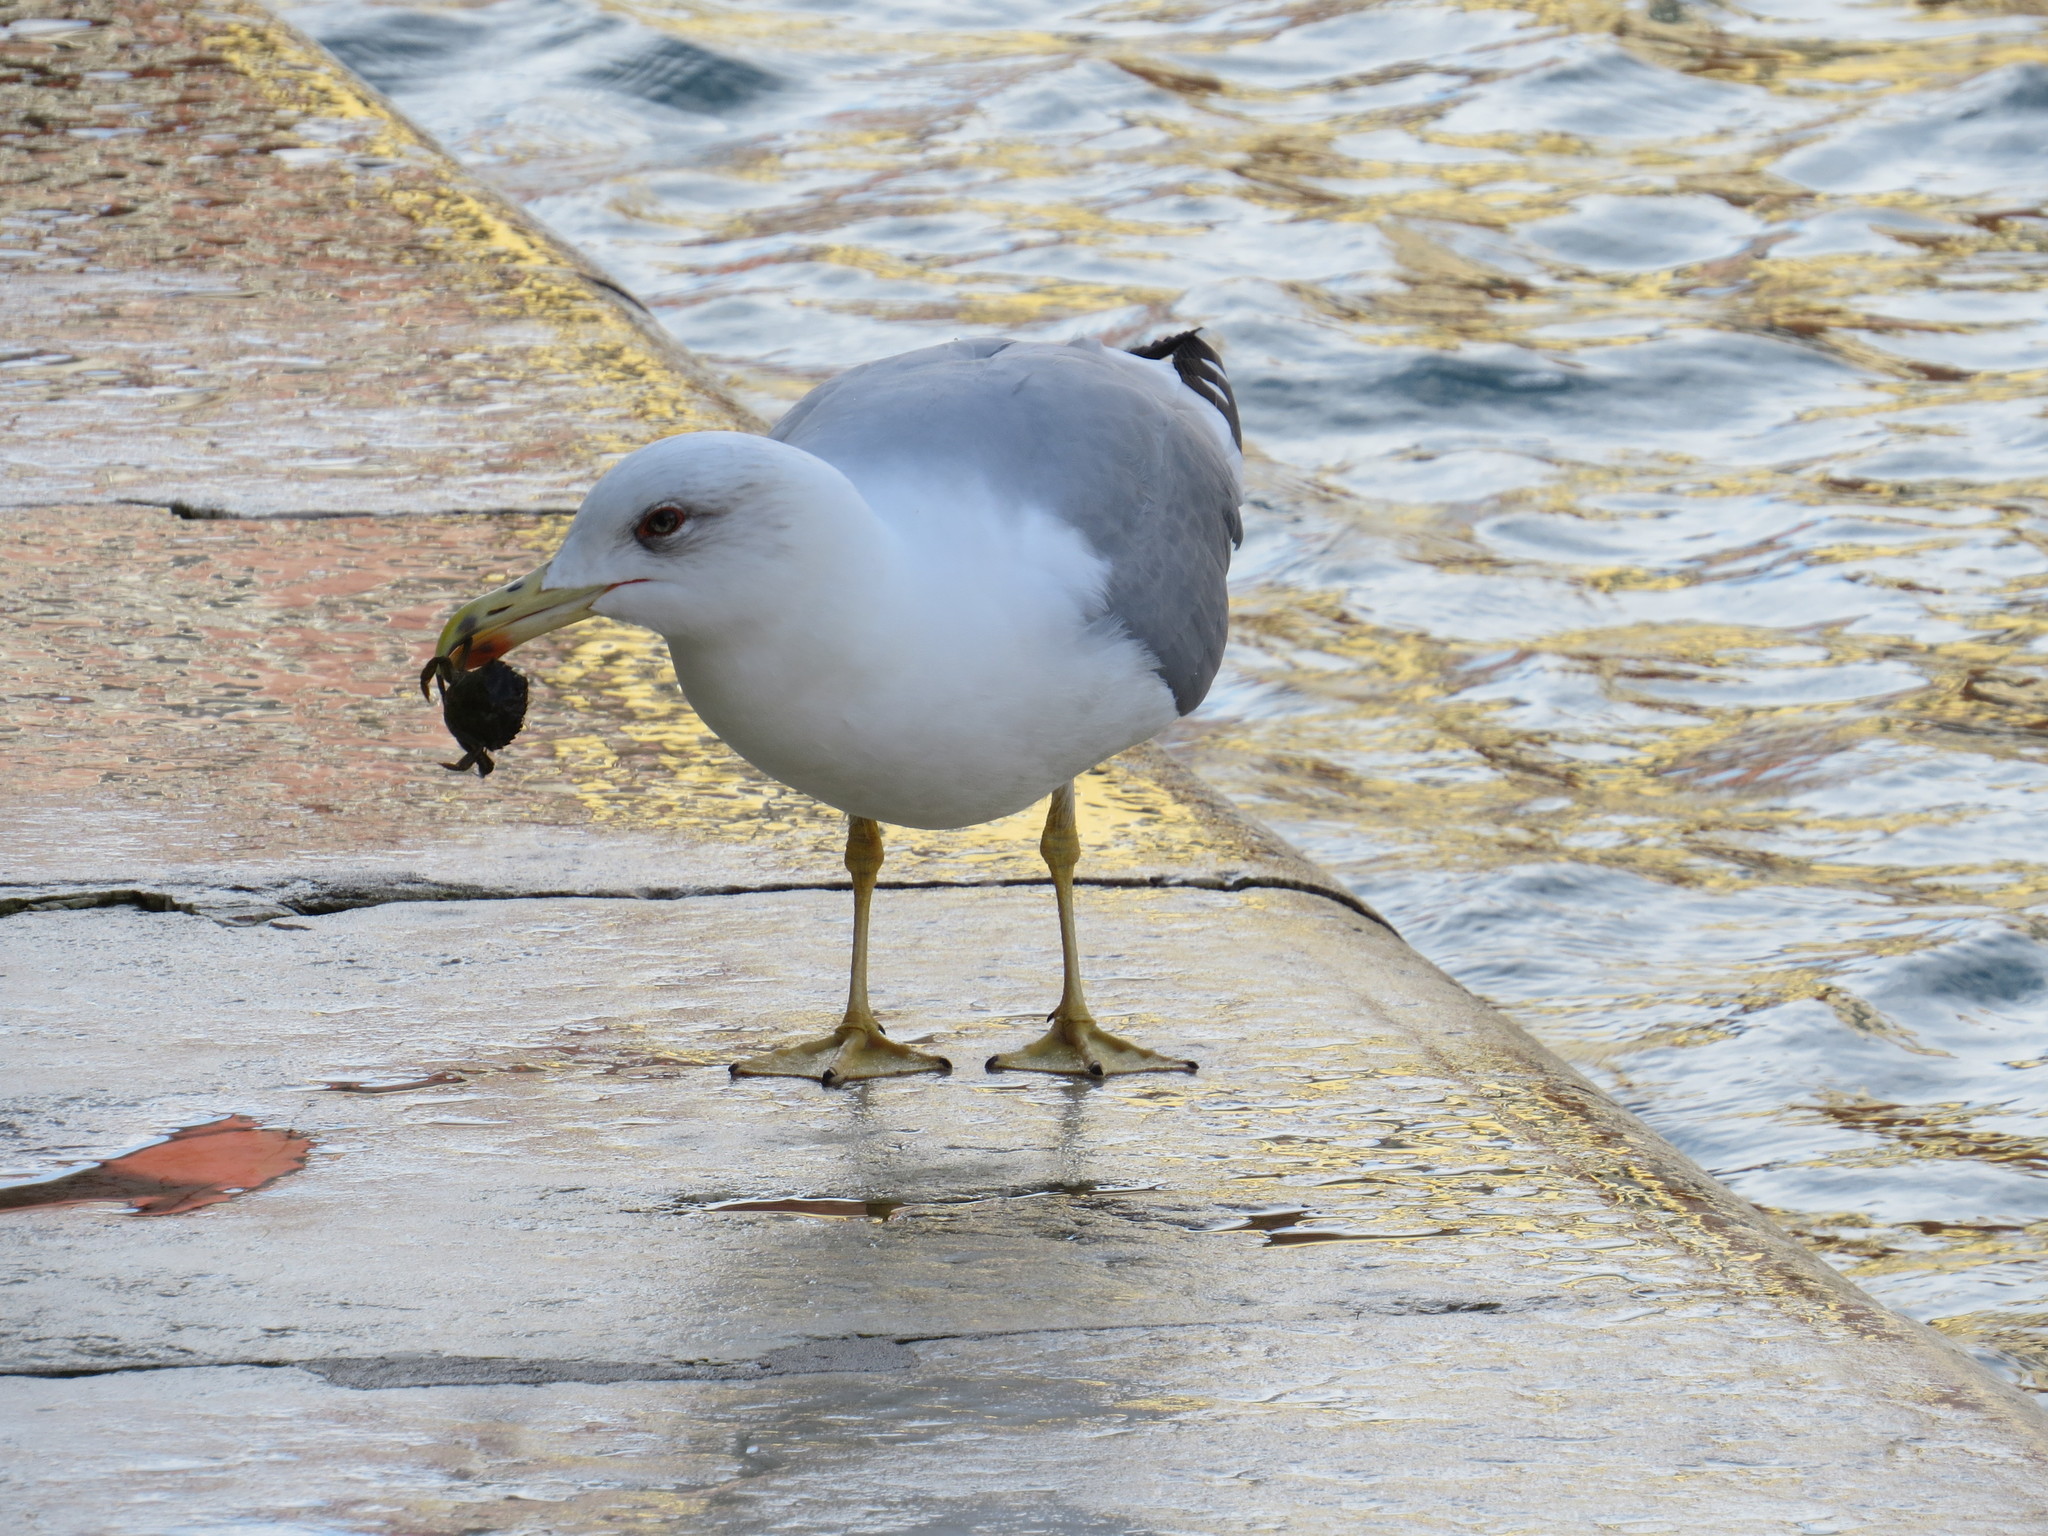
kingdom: Animalia
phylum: Chordata
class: Aves
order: Charadriiformes
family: Laridae
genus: Larus
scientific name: Larus michahellis
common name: Yellow-legged gull
